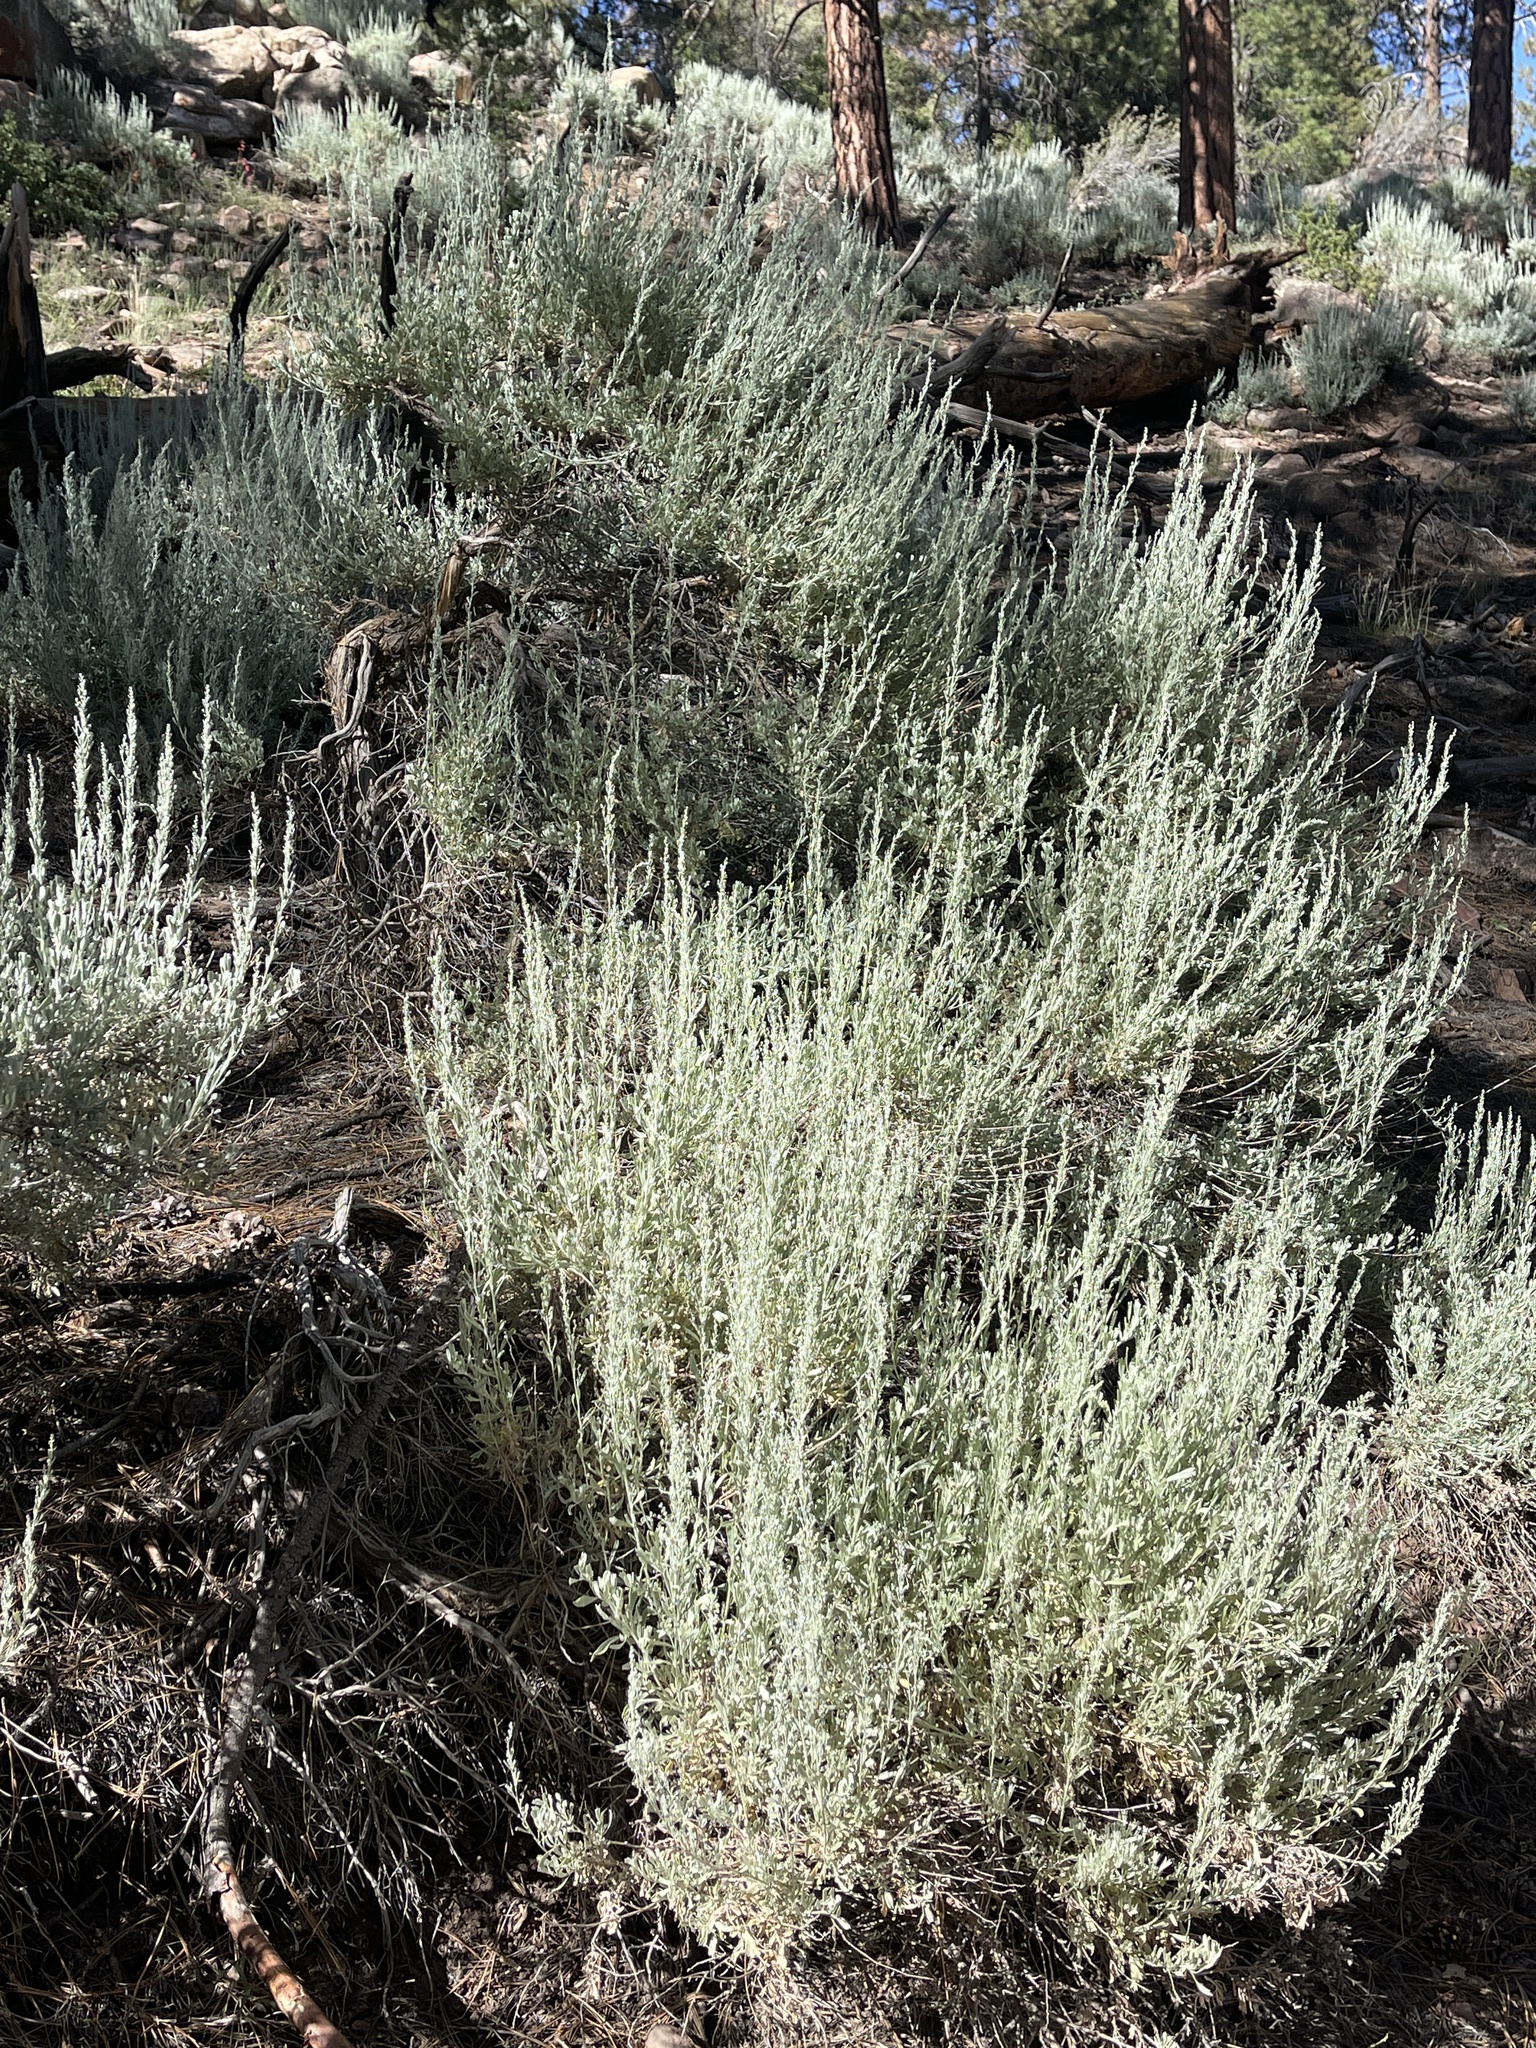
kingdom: Plantae
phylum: Tracheophyta
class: Magnoliopsida
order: Asterales
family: Asteraceae
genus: Artemisia
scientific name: Artemisia tridentata
